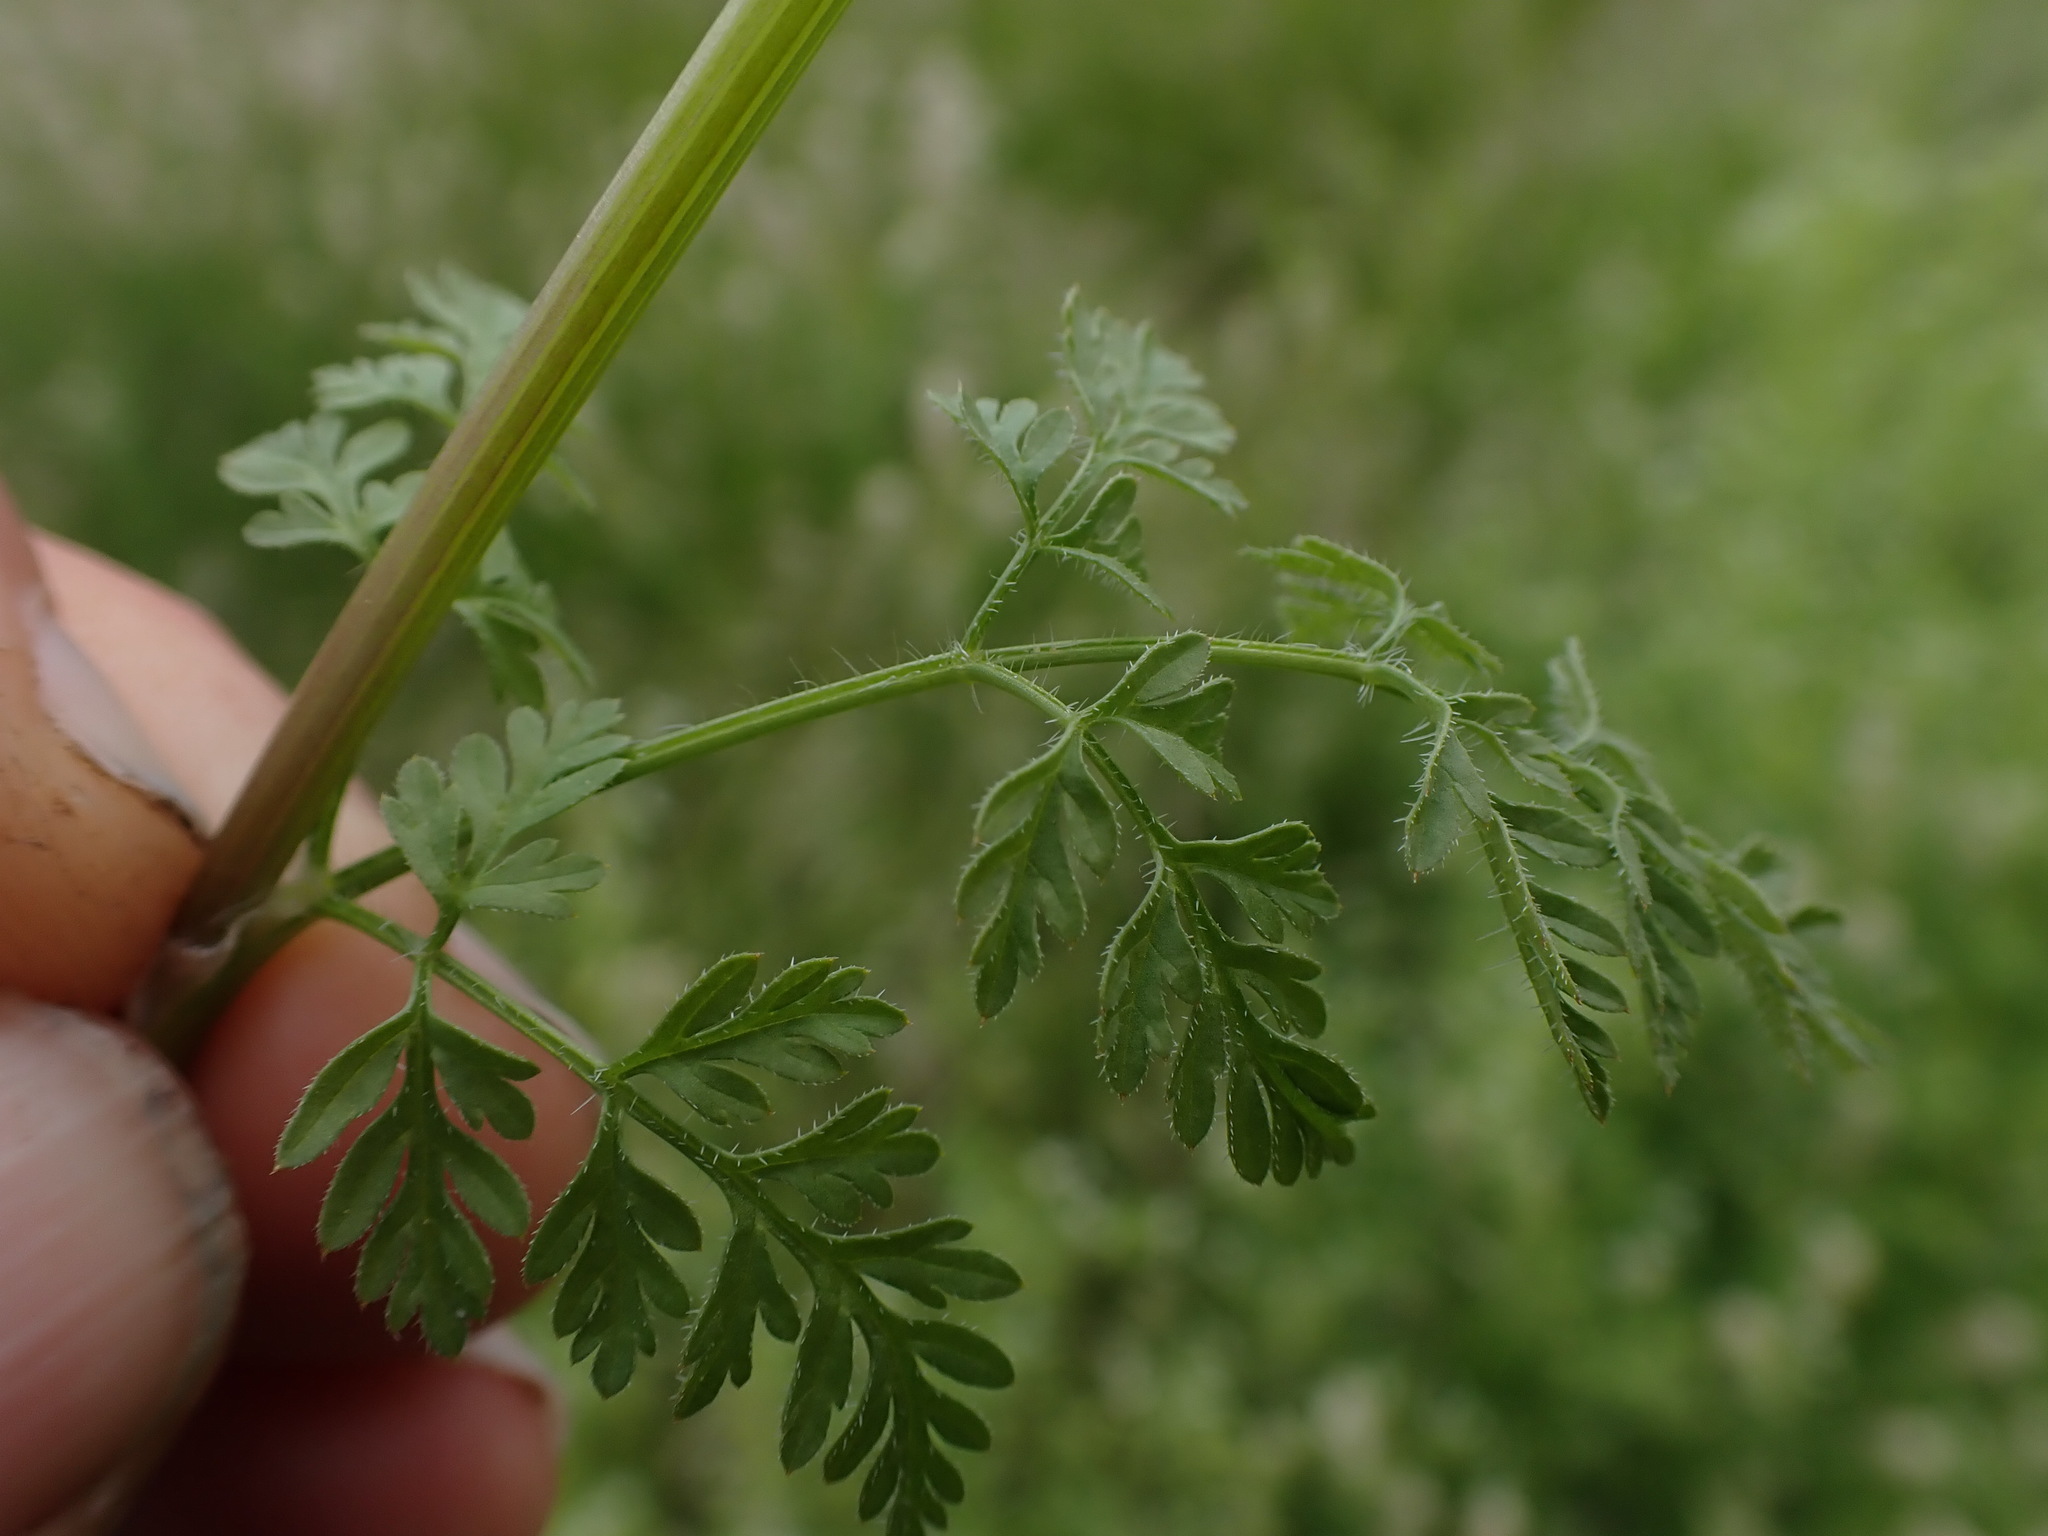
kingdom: Plantae
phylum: Tracheophyta
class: Magnoliopsida
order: Apiales
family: Apiaceae
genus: Anthriscus
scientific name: Anthriscus caucalis
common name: Bur chervil
